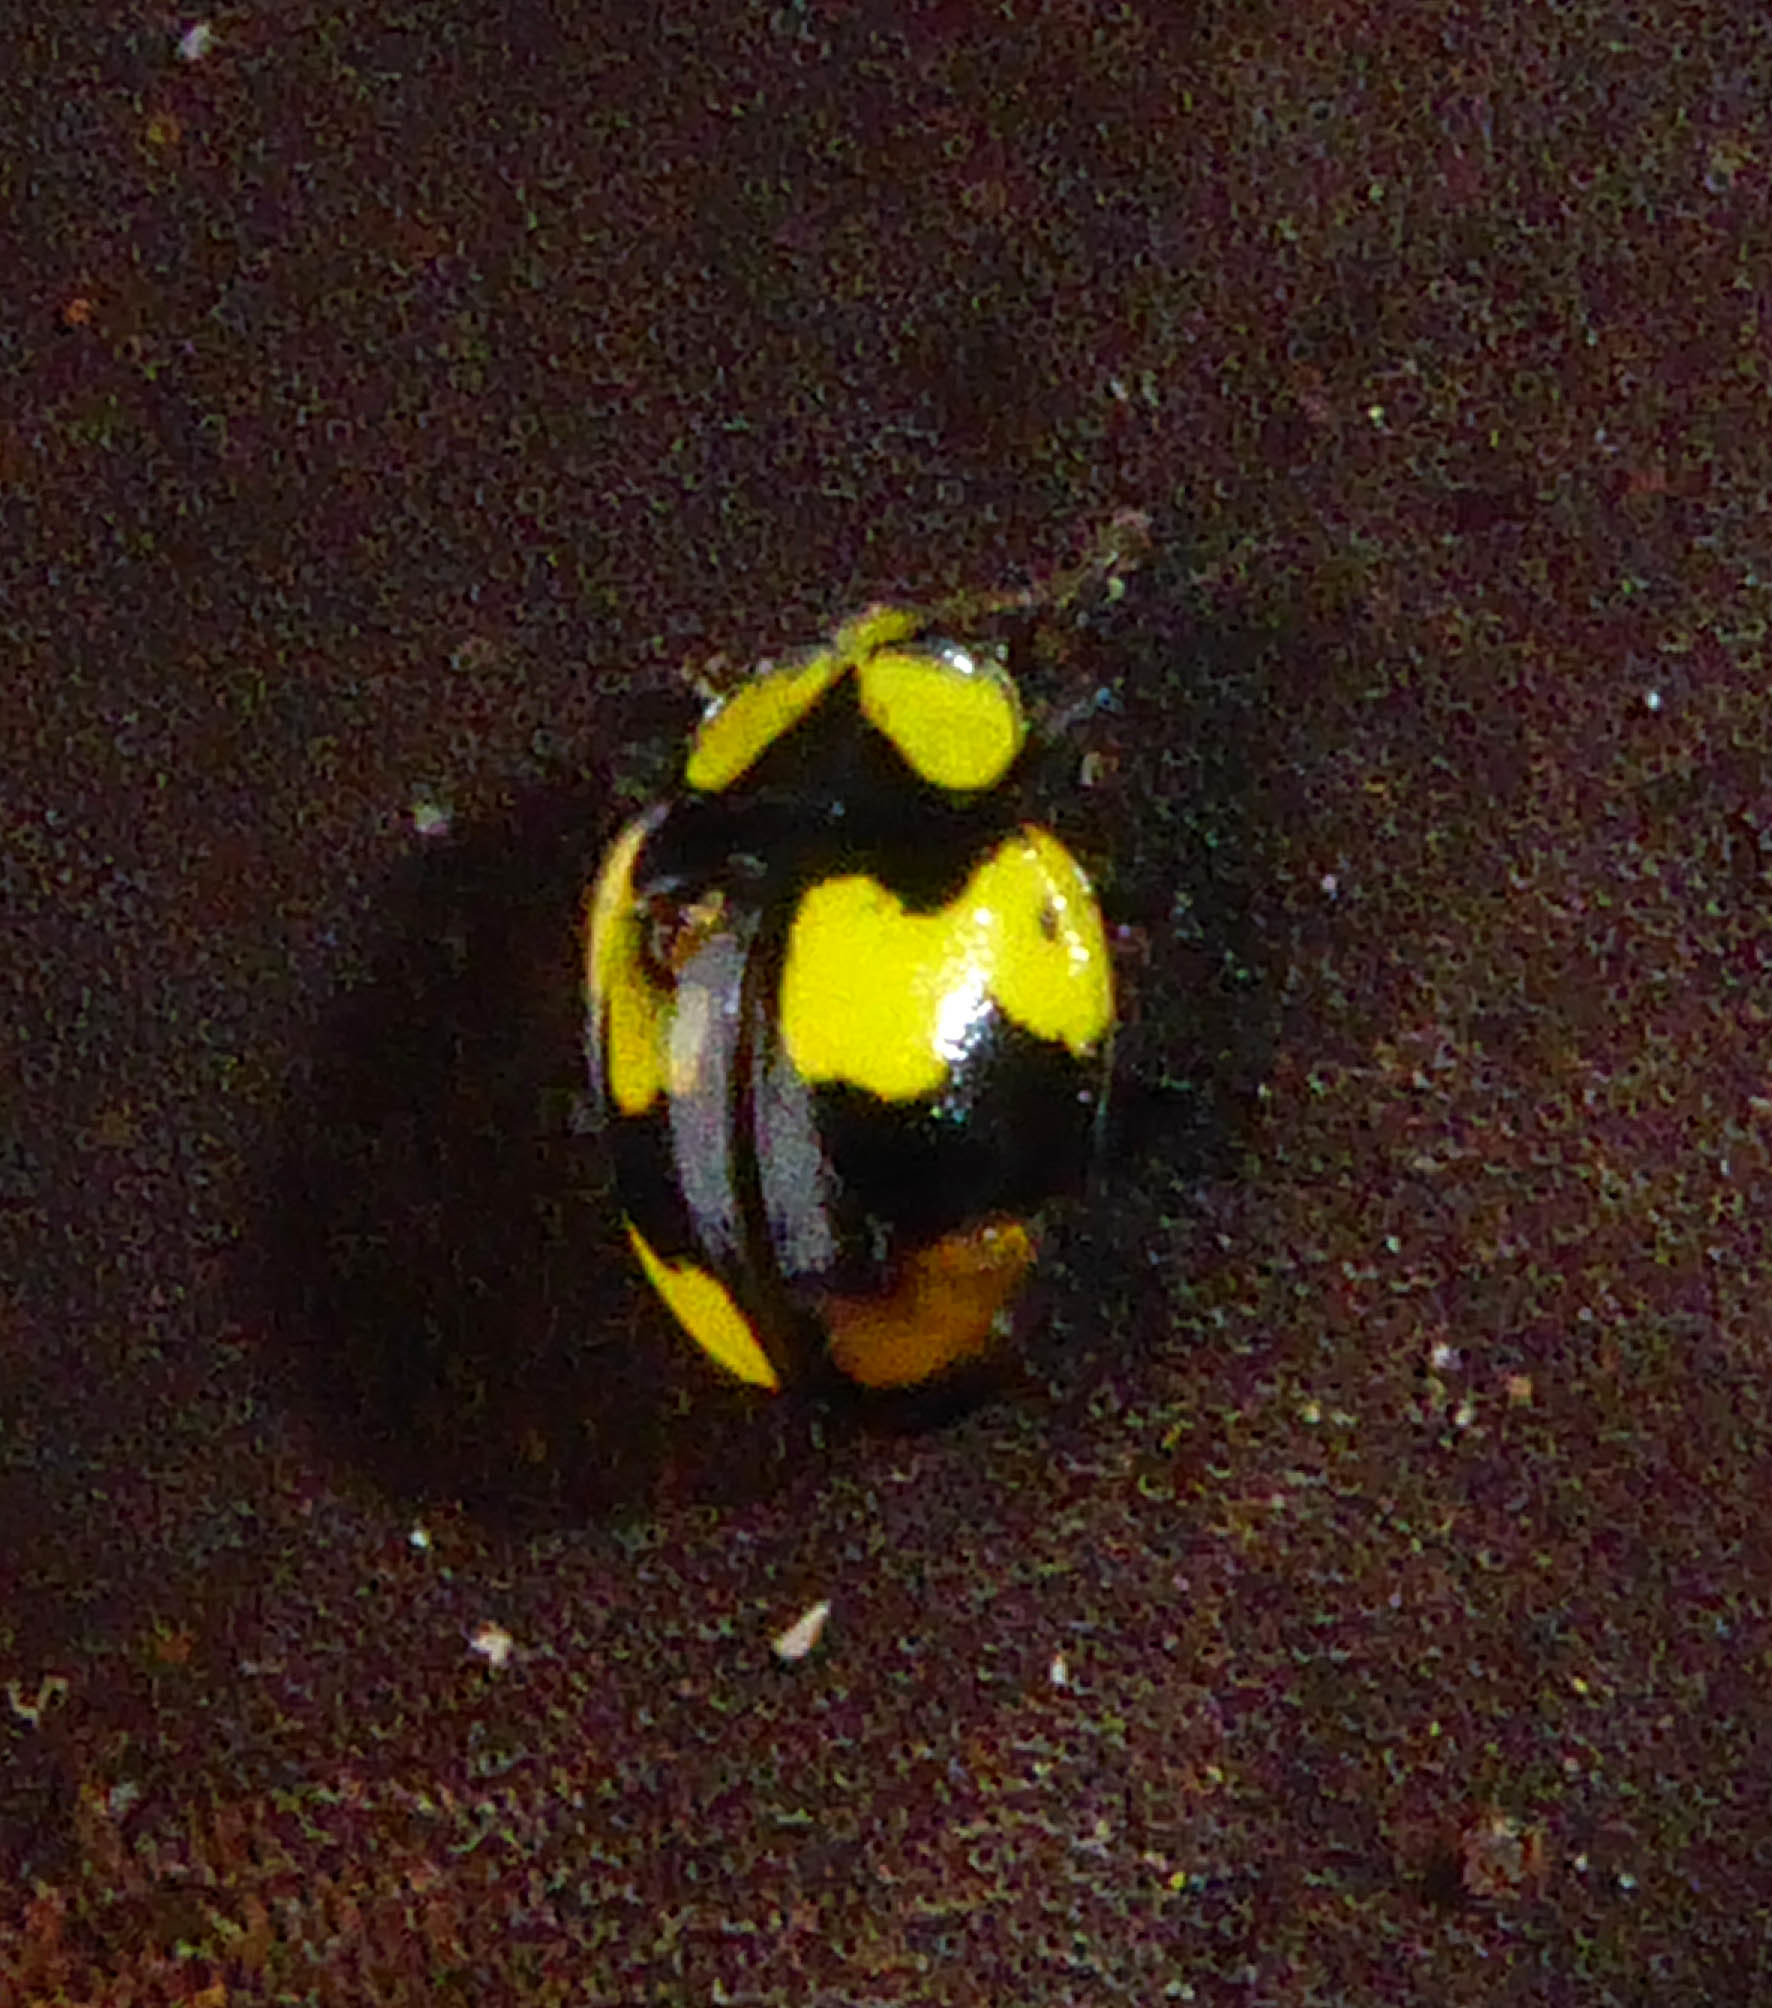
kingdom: Animalia
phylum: Arthropoda
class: Insecta
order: Coleoptera
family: Coccinellidae
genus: Illeis
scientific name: Illeis galbula
